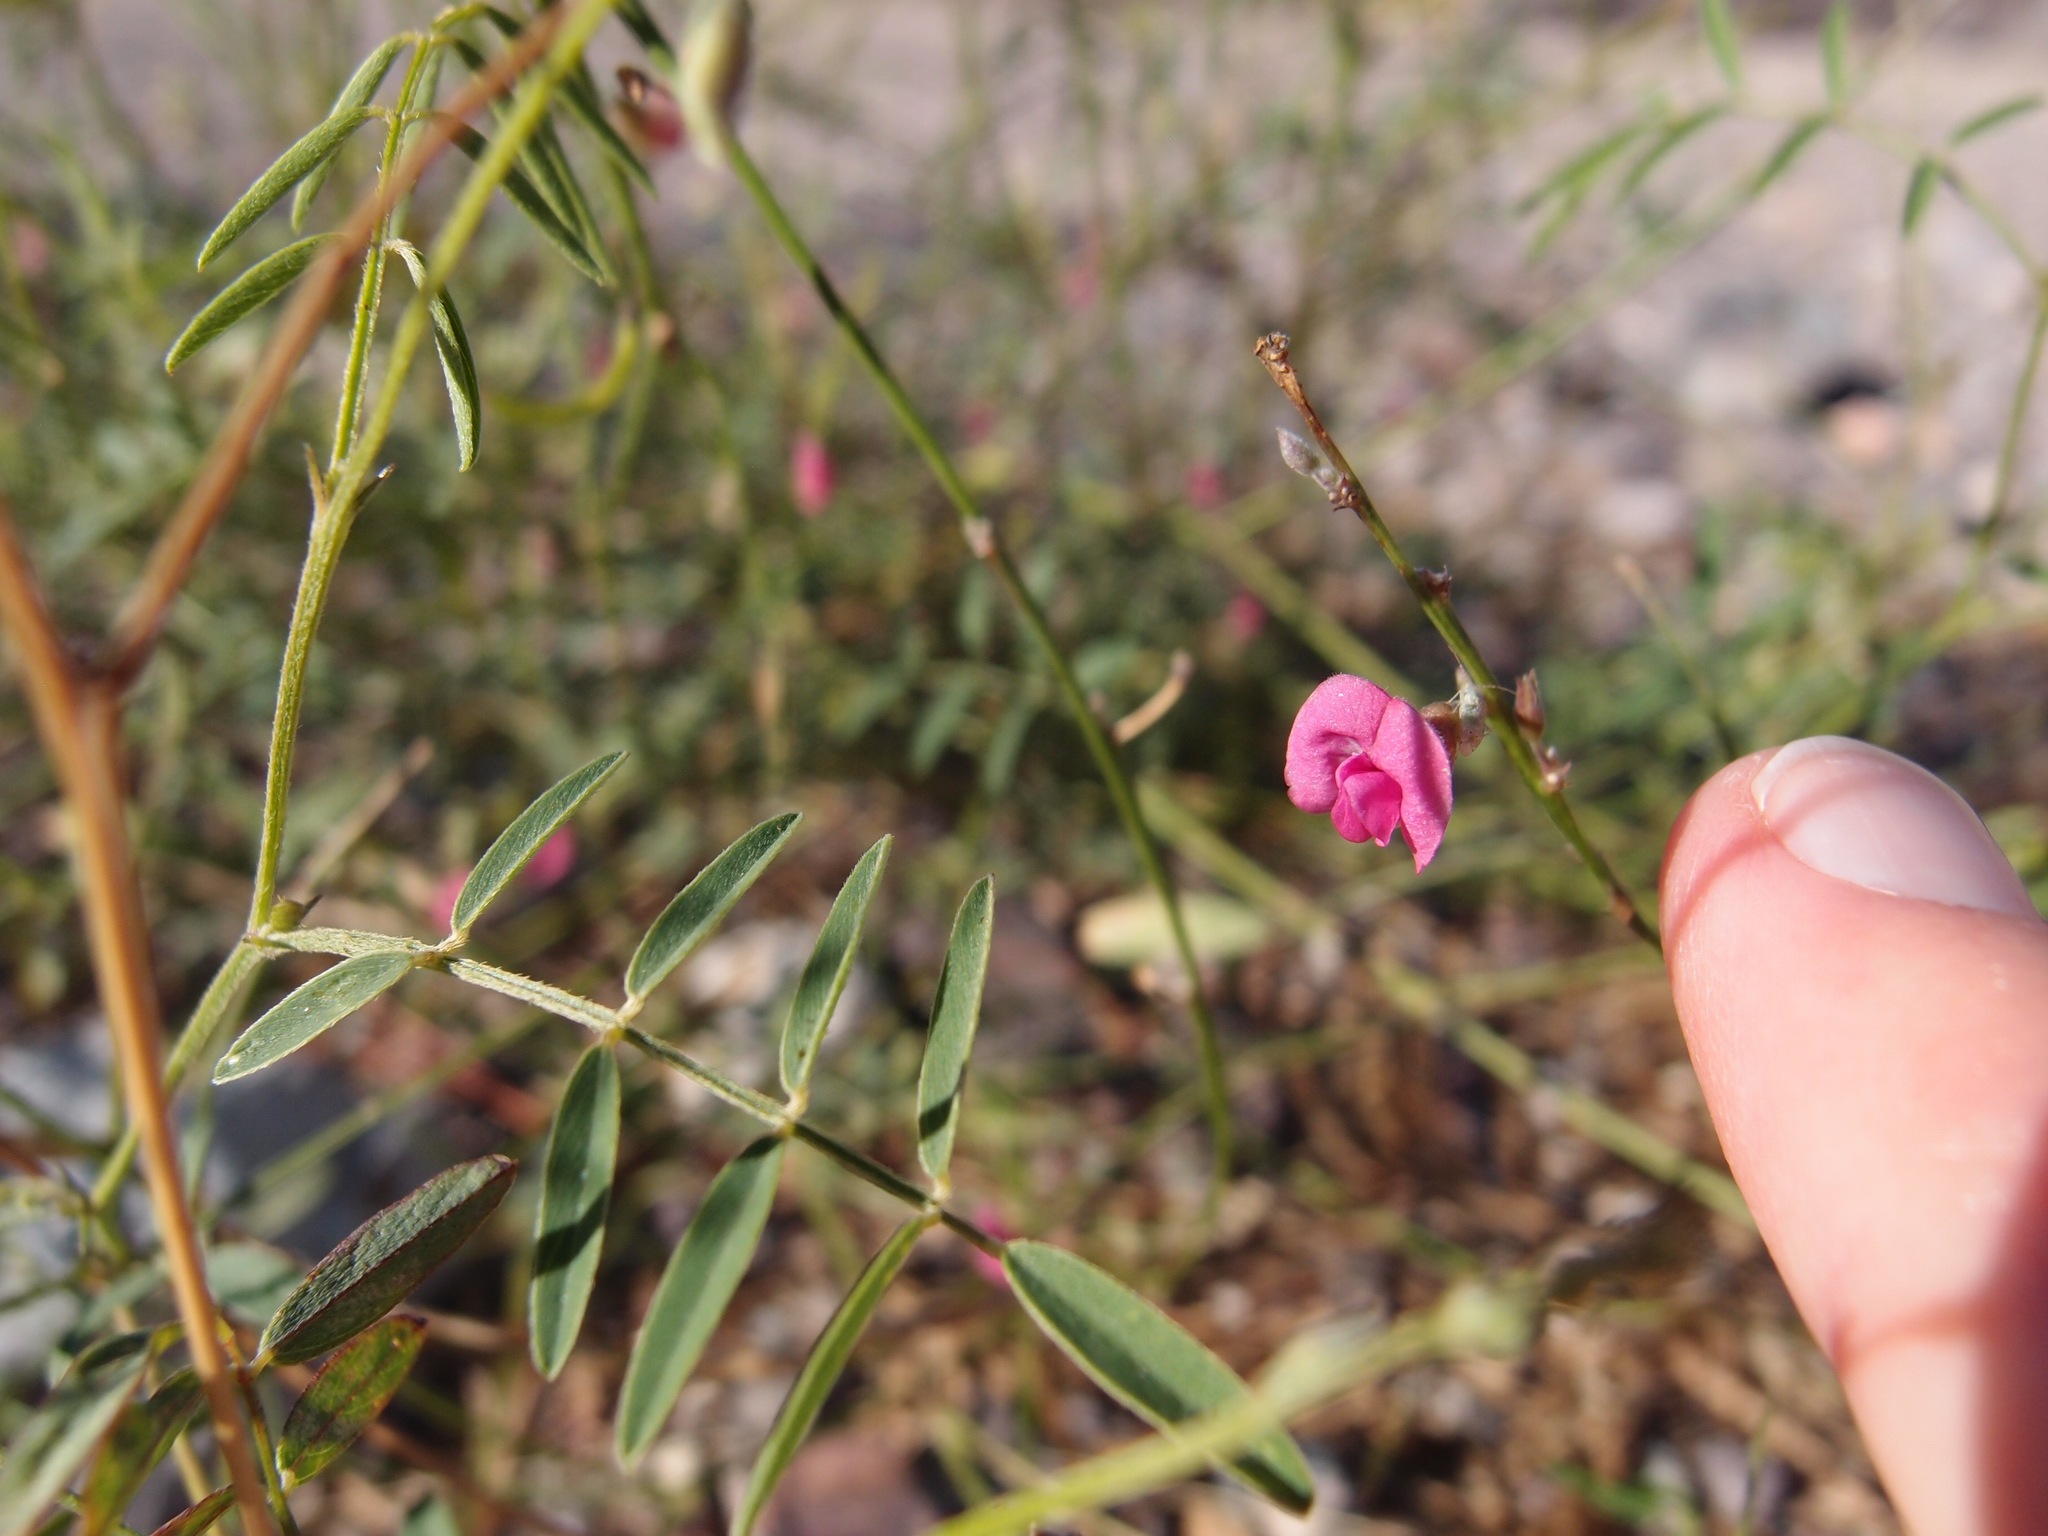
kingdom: Plantae
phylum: Tracheophyta
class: Magnoliopsida
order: Fabales
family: Fabaceae
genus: Tephrosia
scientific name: Tephrosia vicioides
